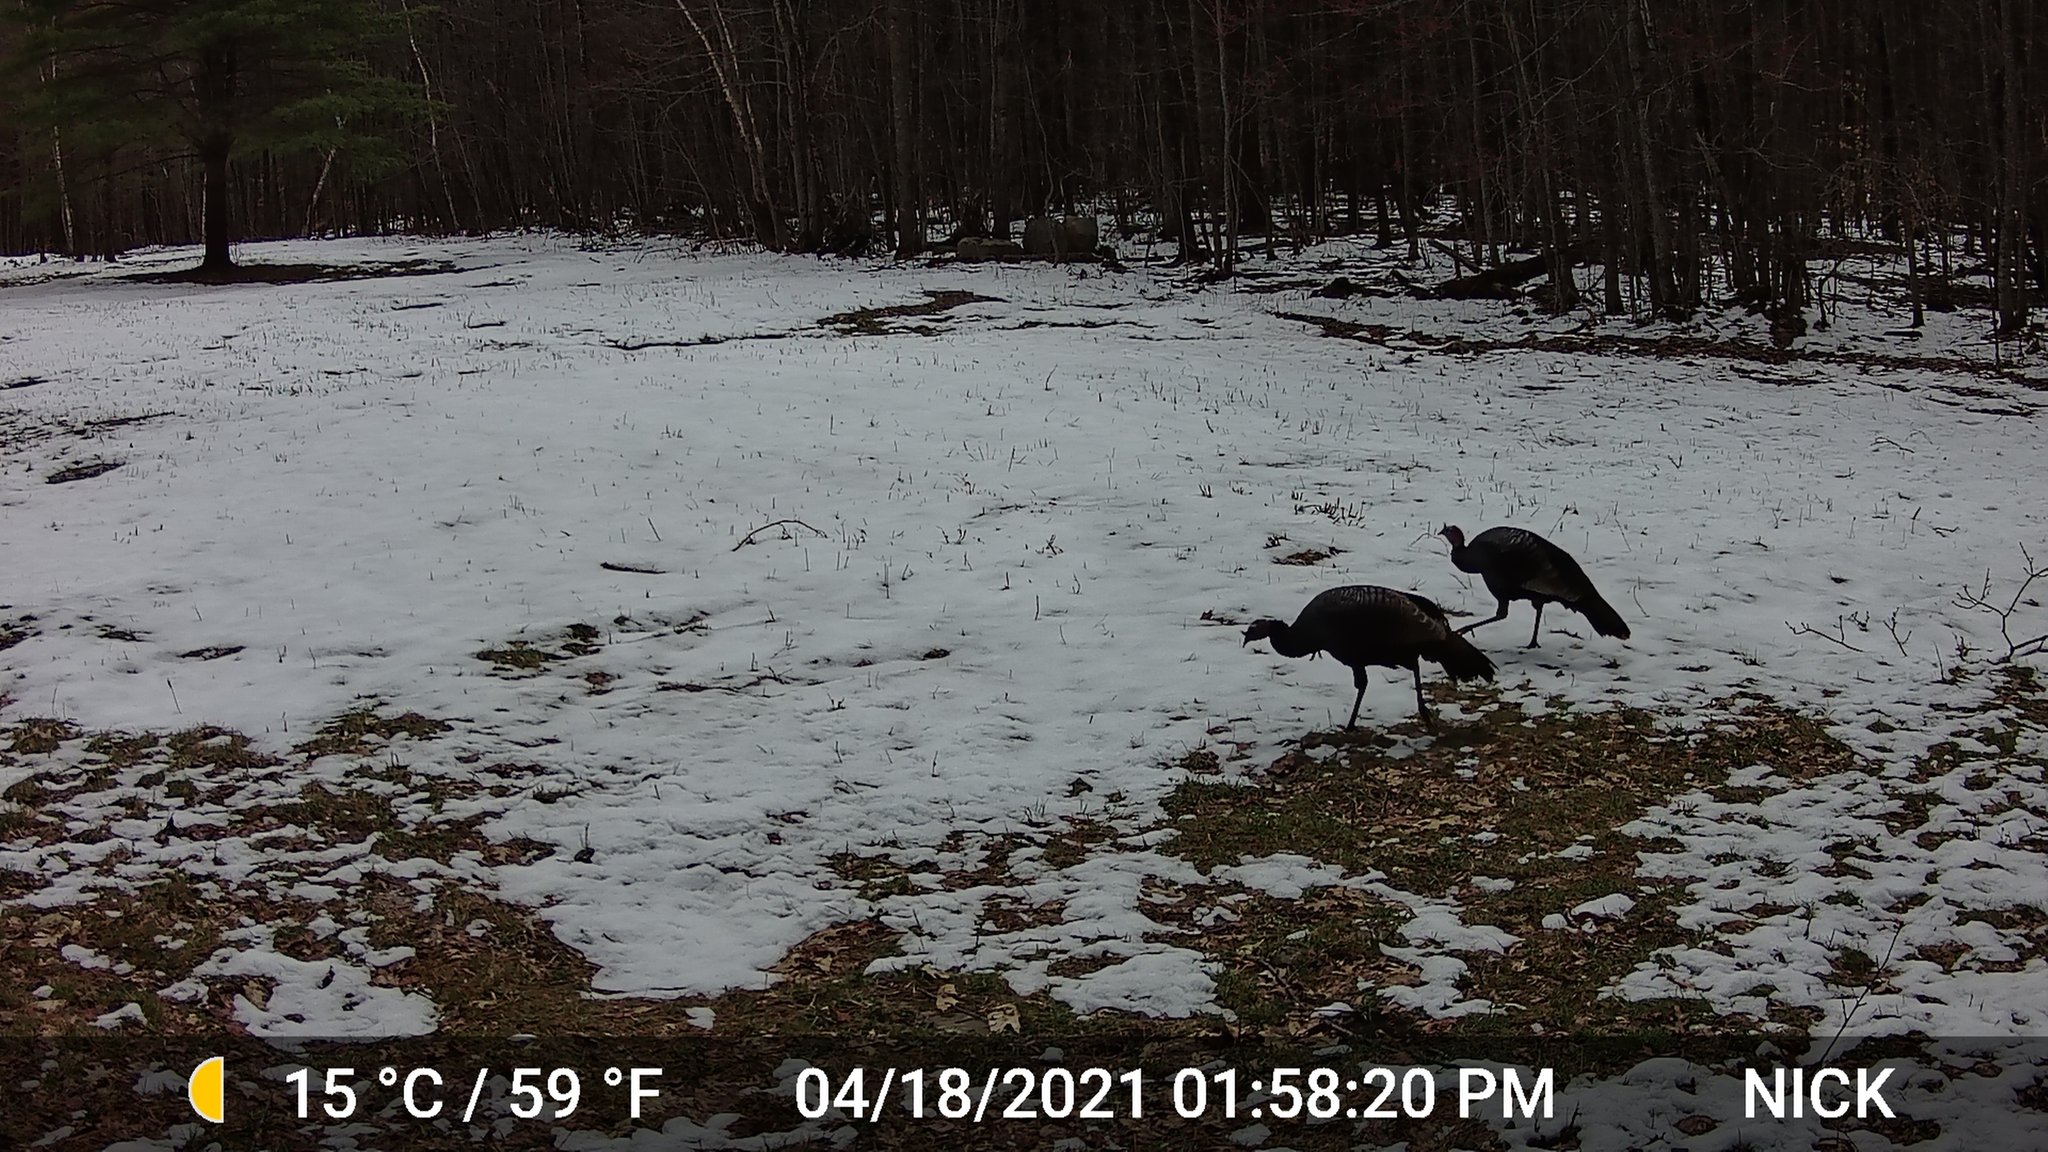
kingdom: Animalia
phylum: Chordata
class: Aves
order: Galliformes
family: Phasianidae
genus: Meleagris
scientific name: Meleagris gallopavo
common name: Wild turkey
